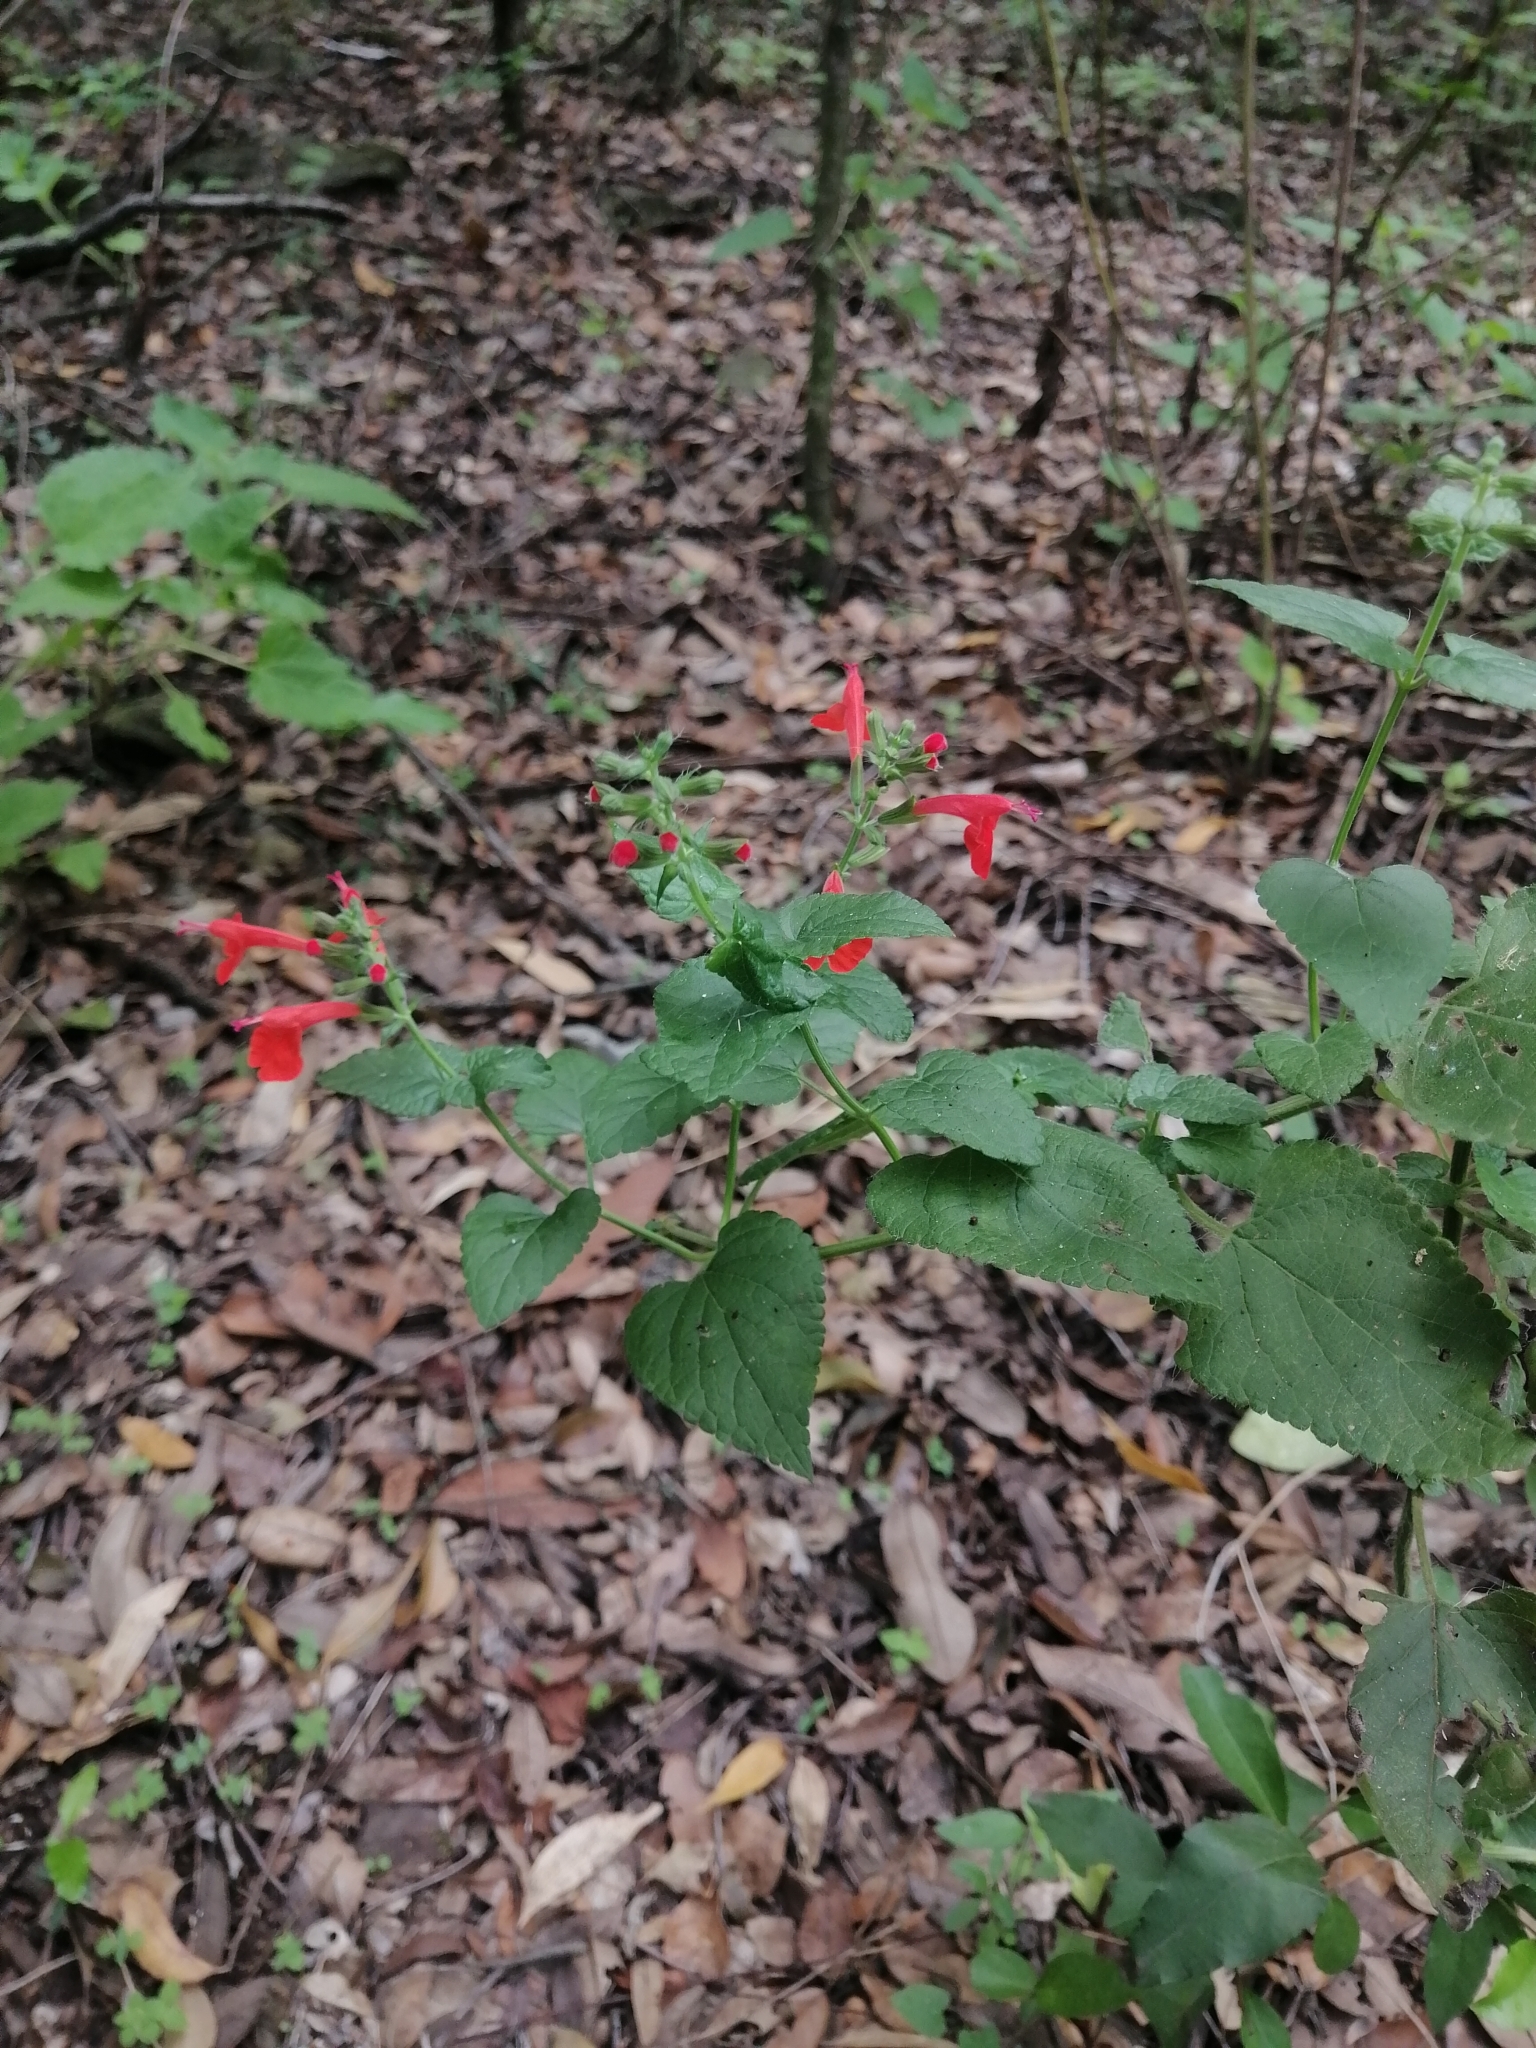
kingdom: Plantae
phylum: Tracheophyta
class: Magnoliopsida
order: Lamiales
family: Lamiaceae
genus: Salvia
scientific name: Salvia coccinea
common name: Blood sage
